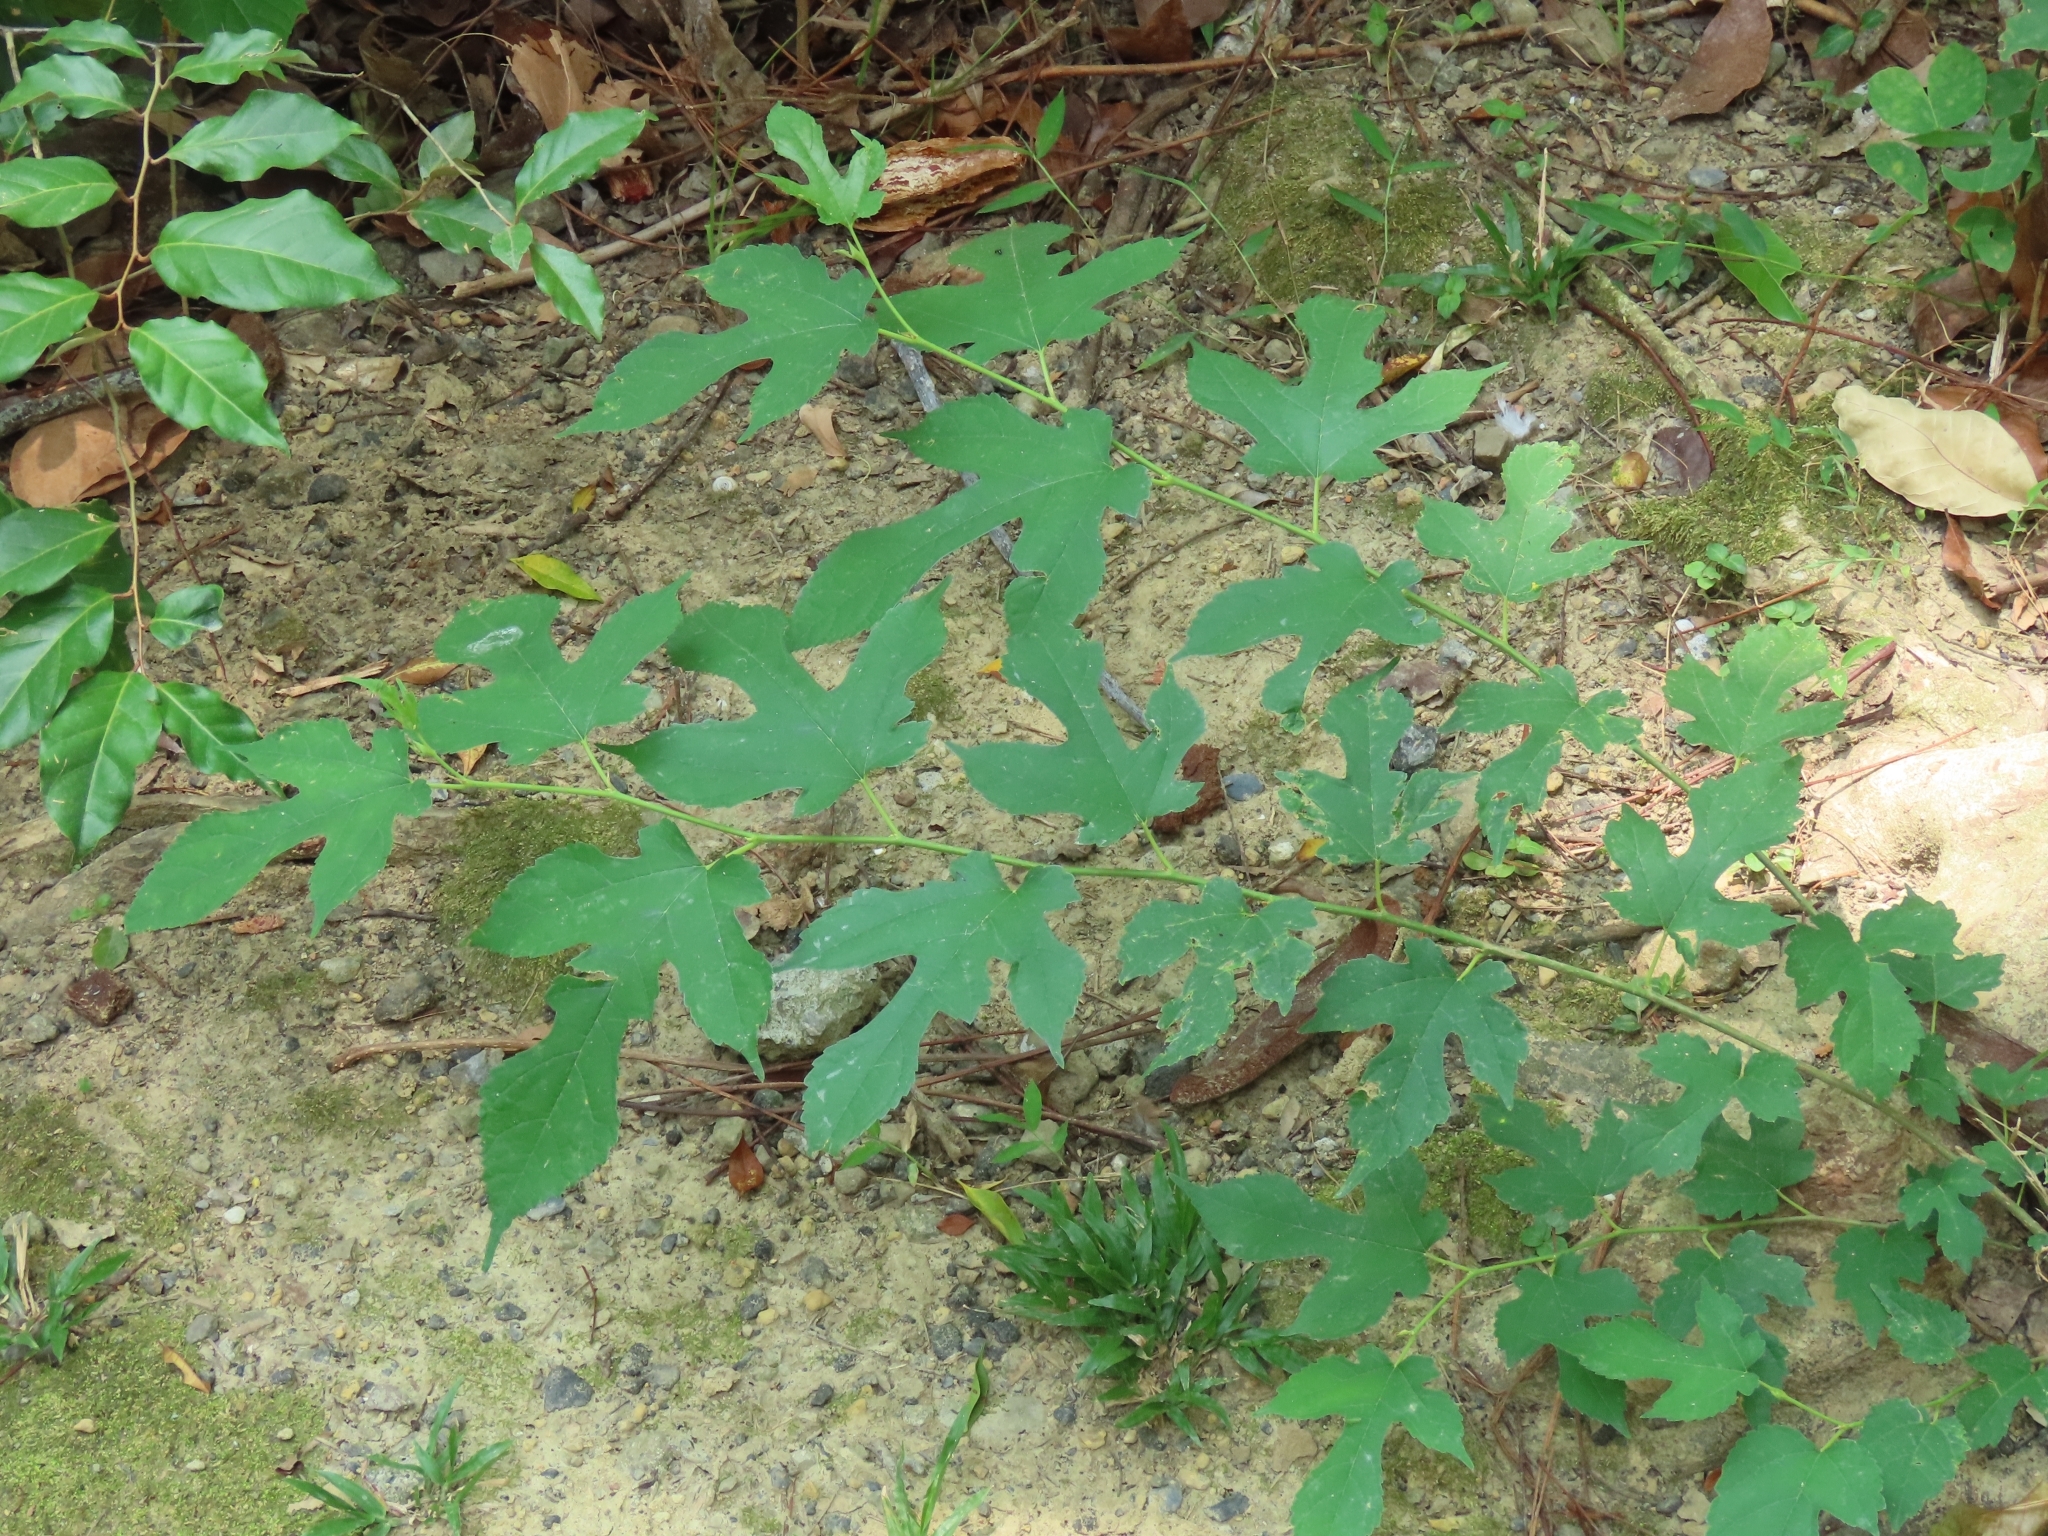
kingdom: Plantae
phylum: Tracheophyta
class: Magnoliopsida
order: Rosales
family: Moraceae
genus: Morus
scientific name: Morus indica
